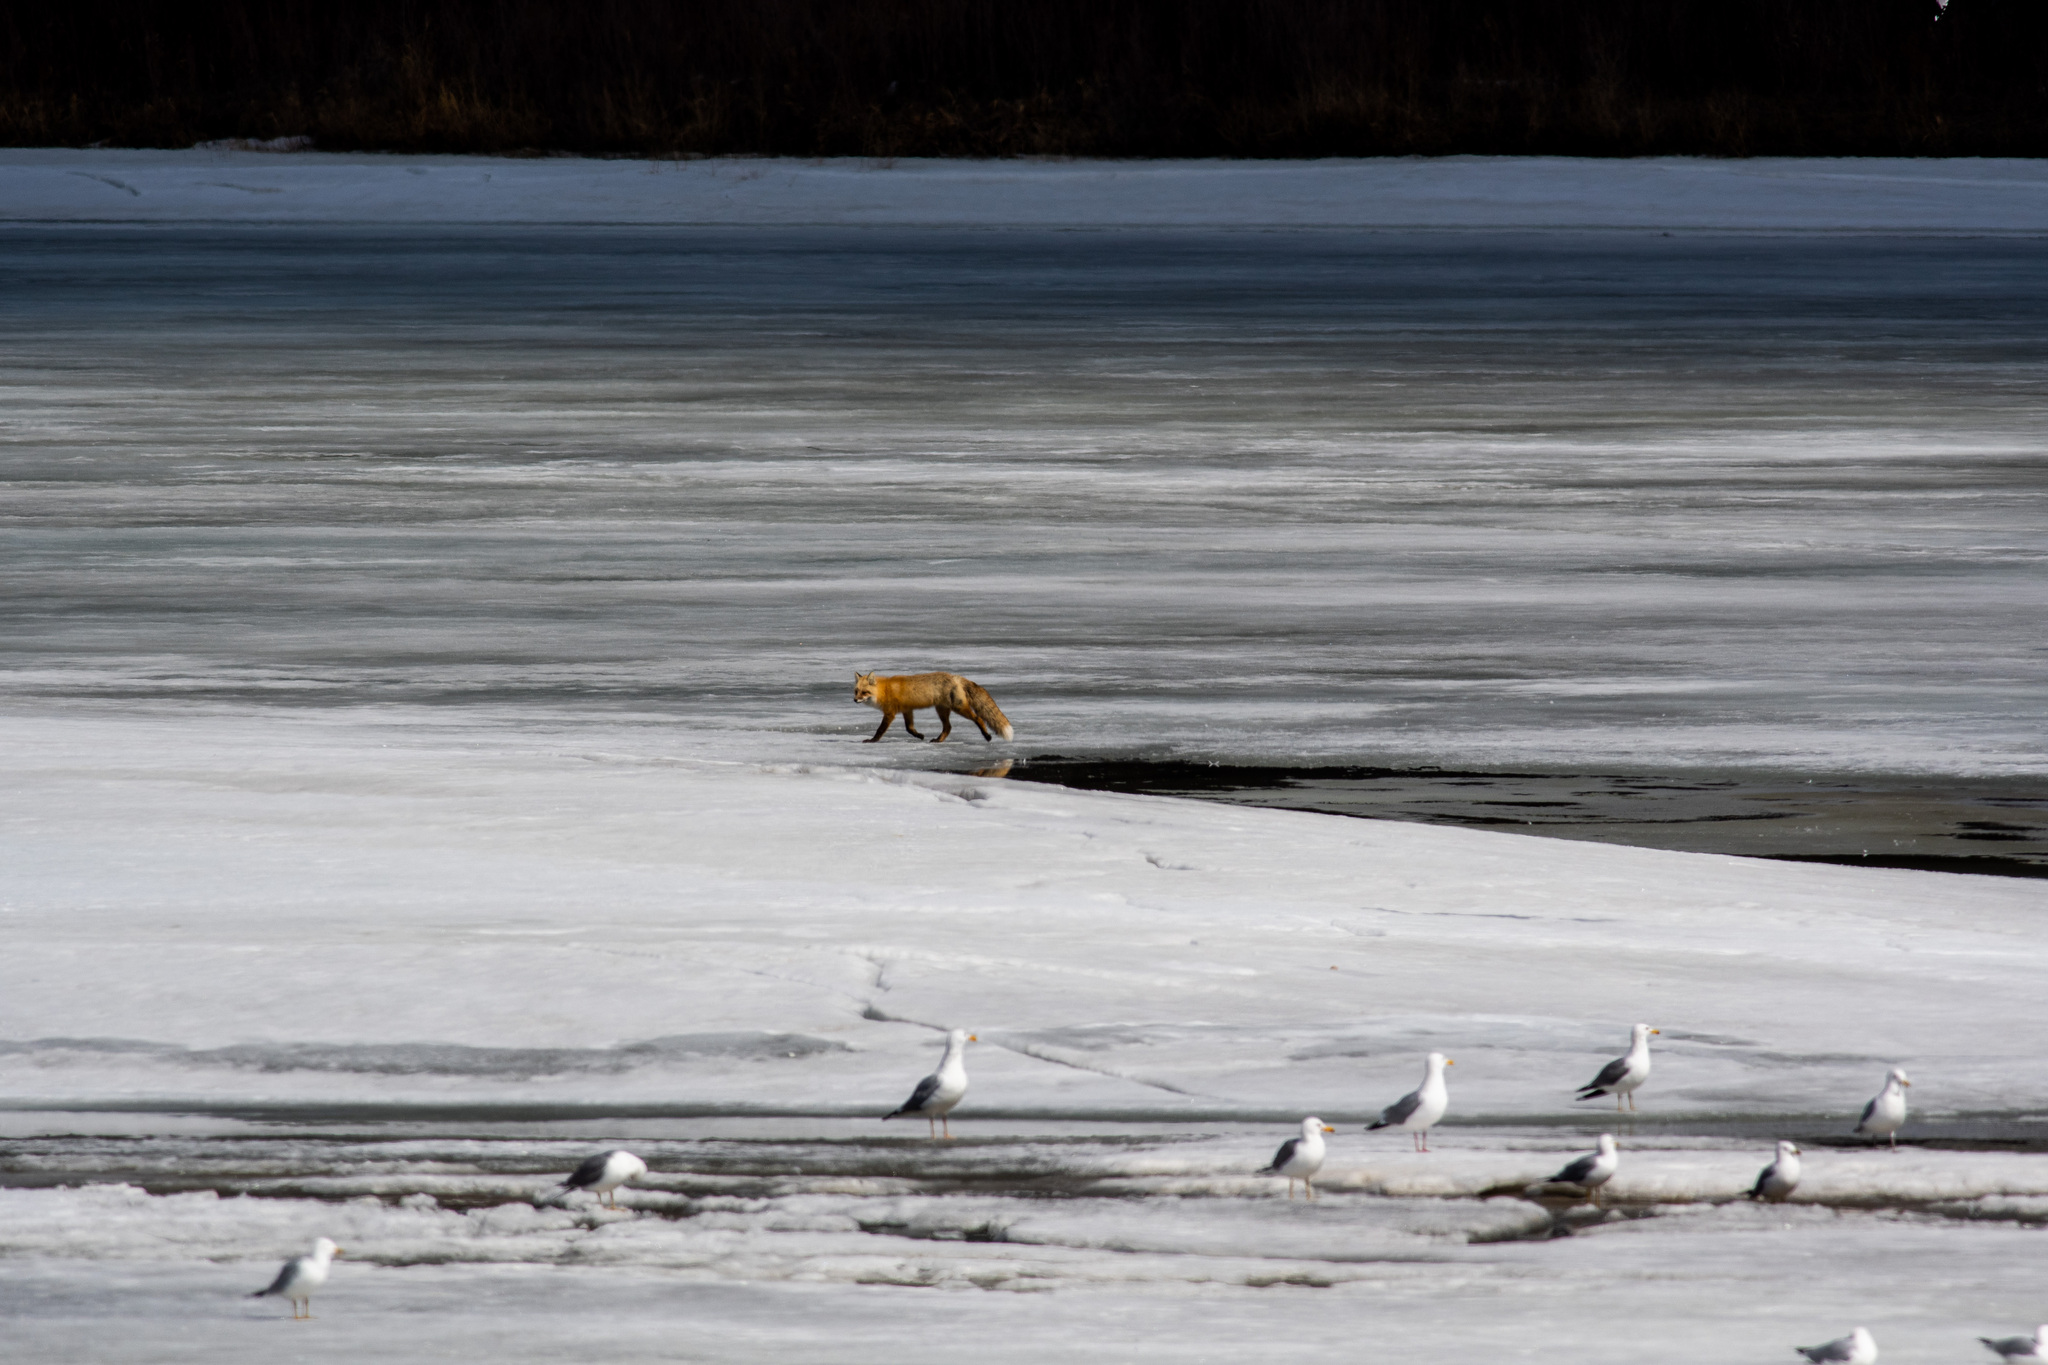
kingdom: Animalia
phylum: Chordata
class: Mammalia
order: Carnivora
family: Canidae
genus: Vulpes
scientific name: Vulpes vulpes
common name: Red fox
